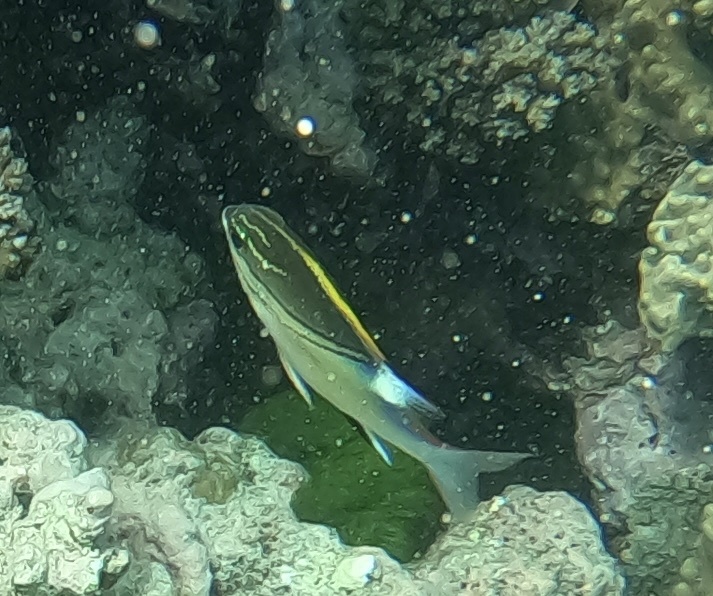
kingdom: Animalia
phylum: Chordata
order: Perciformes
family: Nemipteridae
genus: Scolopsis
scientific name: Scolopsis bilineata
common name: Two-lined monocle bream
